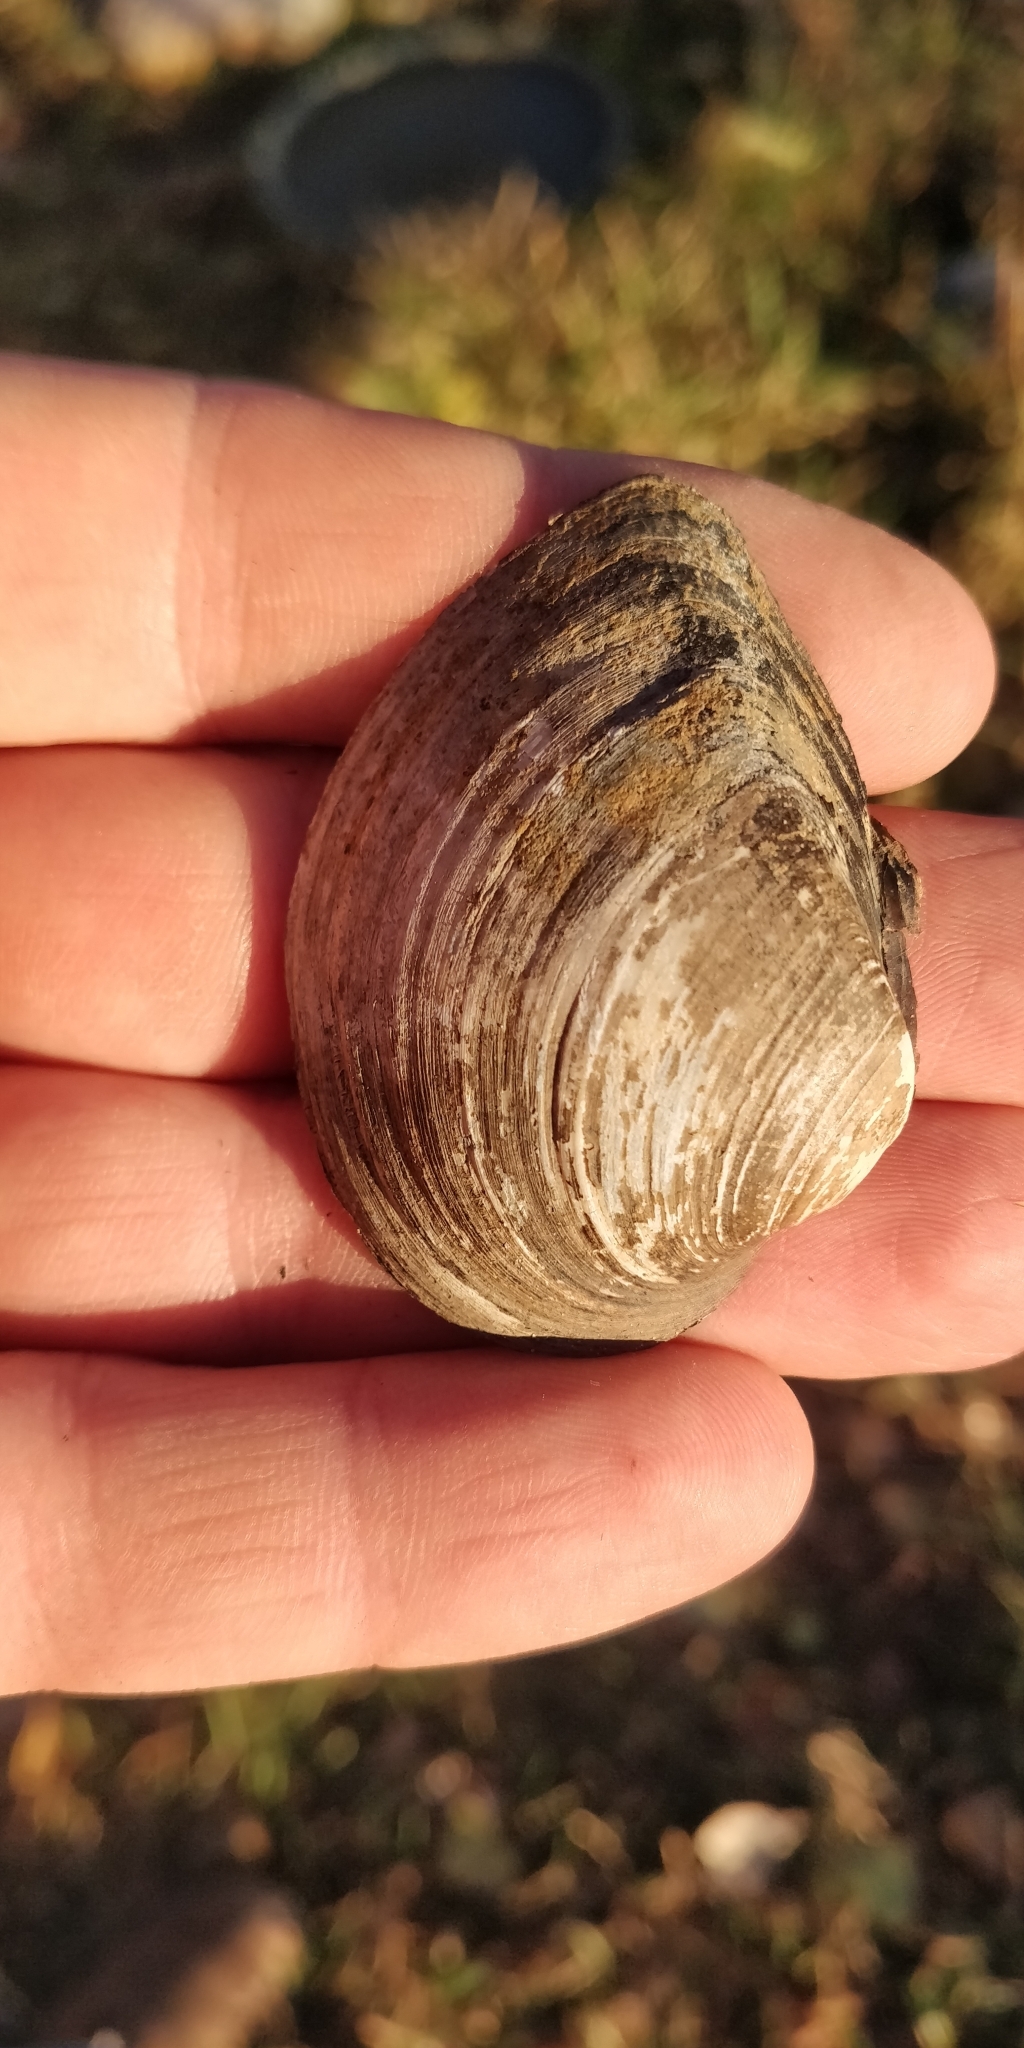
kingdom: Animalia
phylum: Mollusca
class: Bivalvia
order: Unionida
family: Unionidae
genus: Truncilla
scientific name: Truncilla truncata
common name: Deertoe
